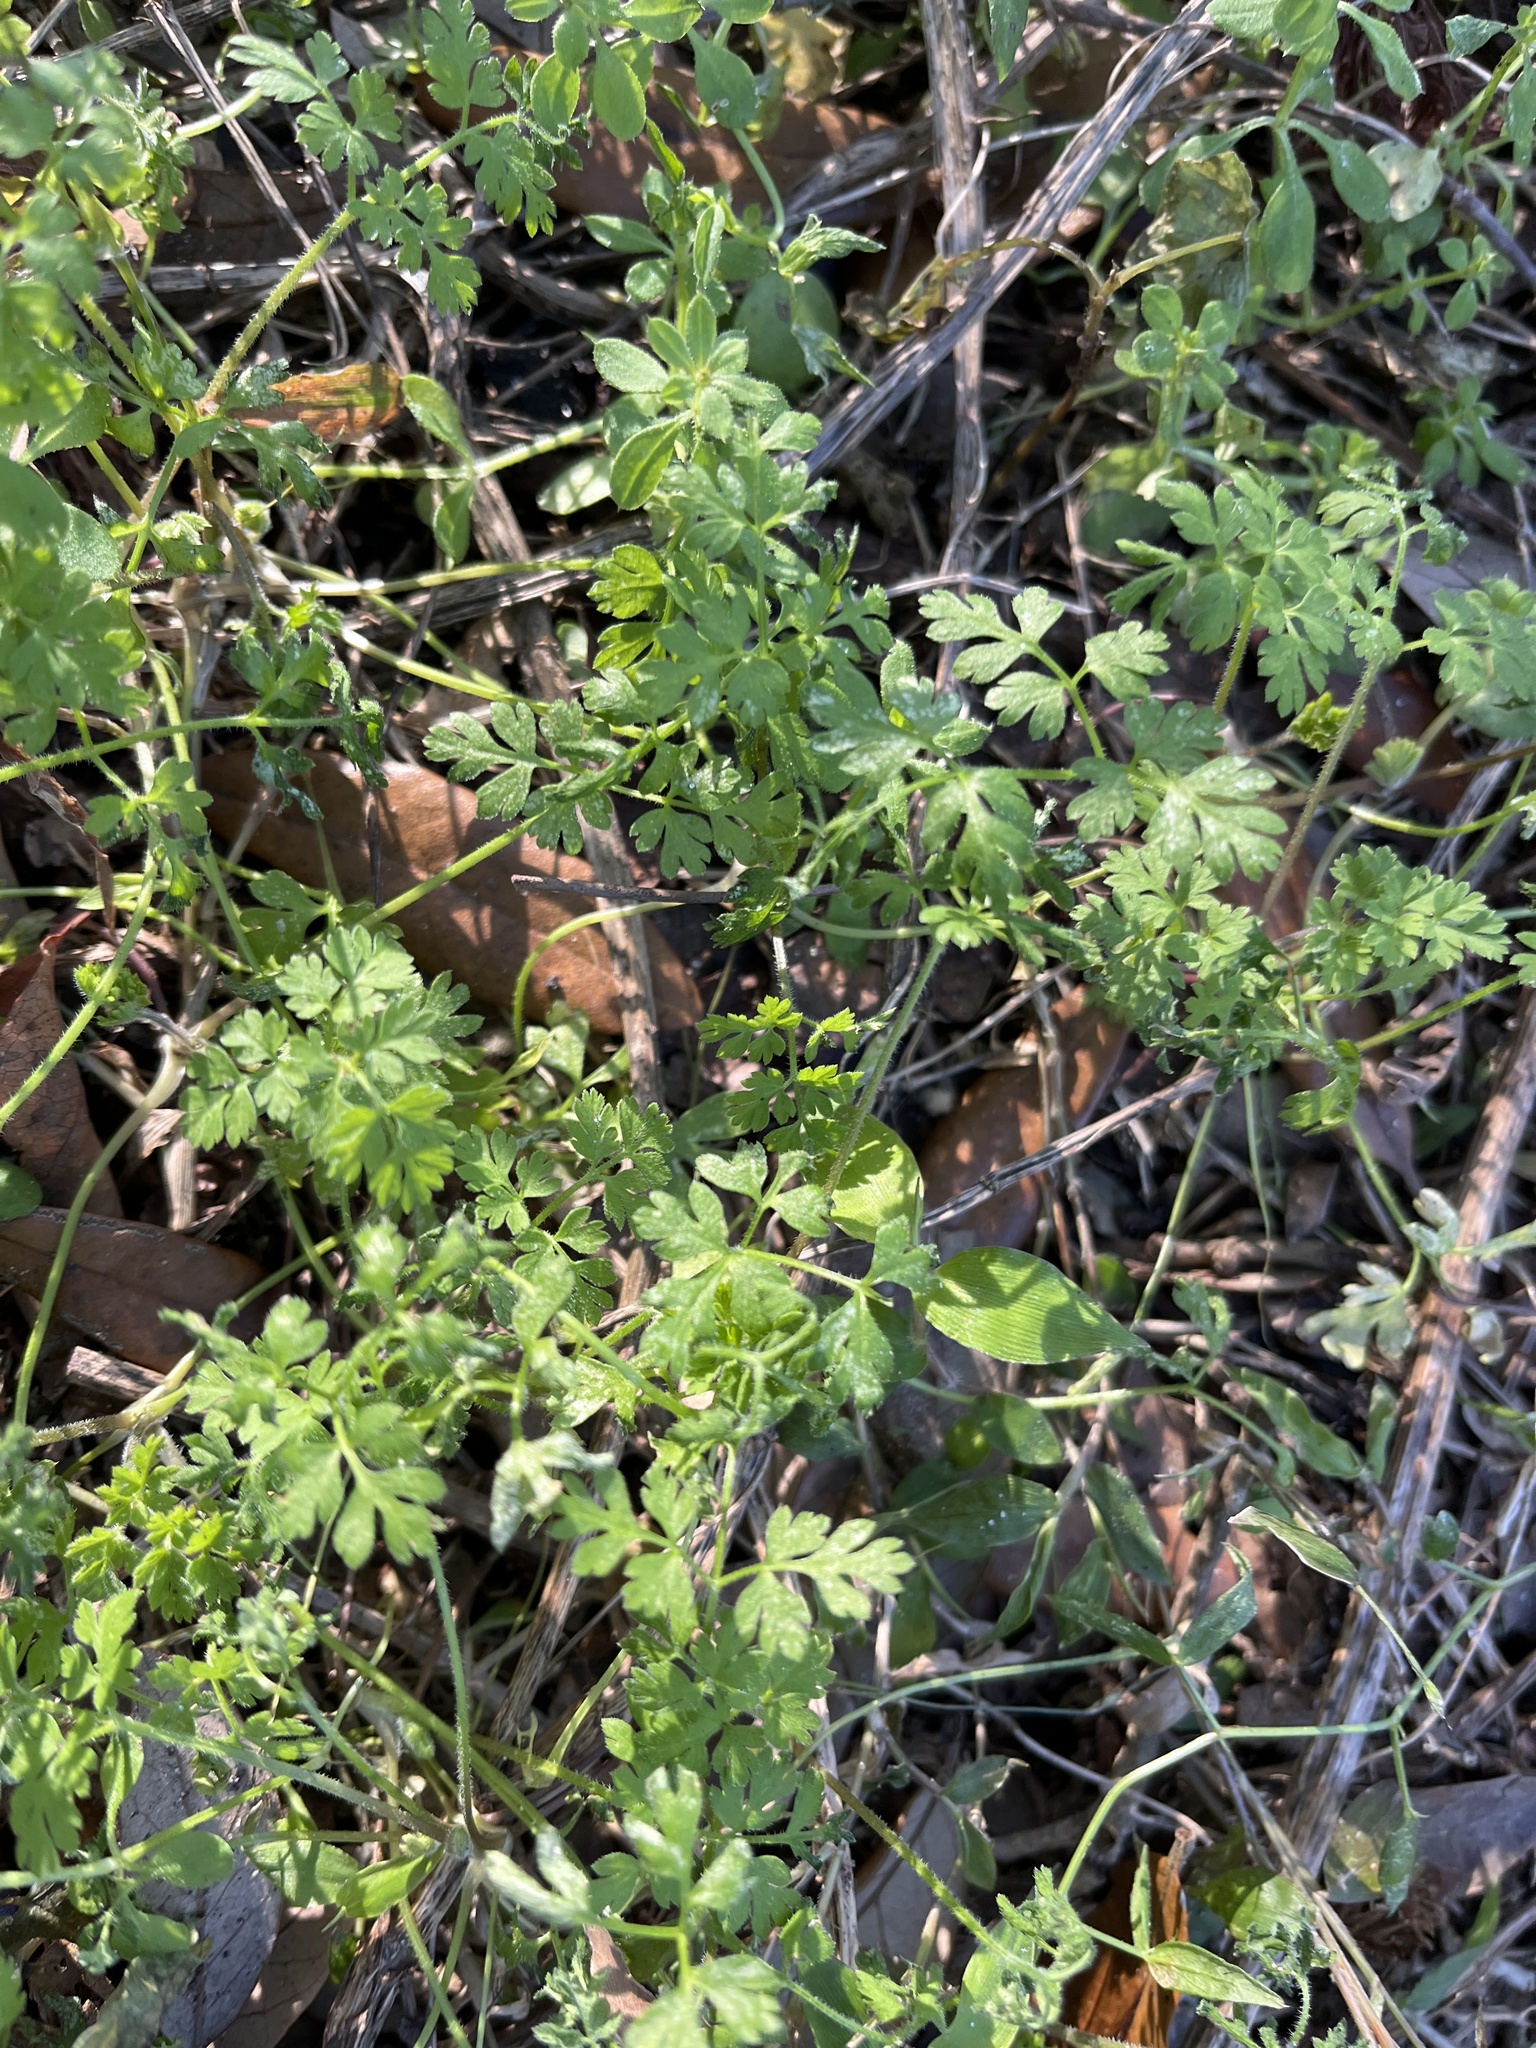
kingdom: Plantae
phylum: Tracheophyta
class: Magnoliopsida
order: Ranunculales
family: Papaveraceae
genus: Fumaria
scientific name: Fumaria
